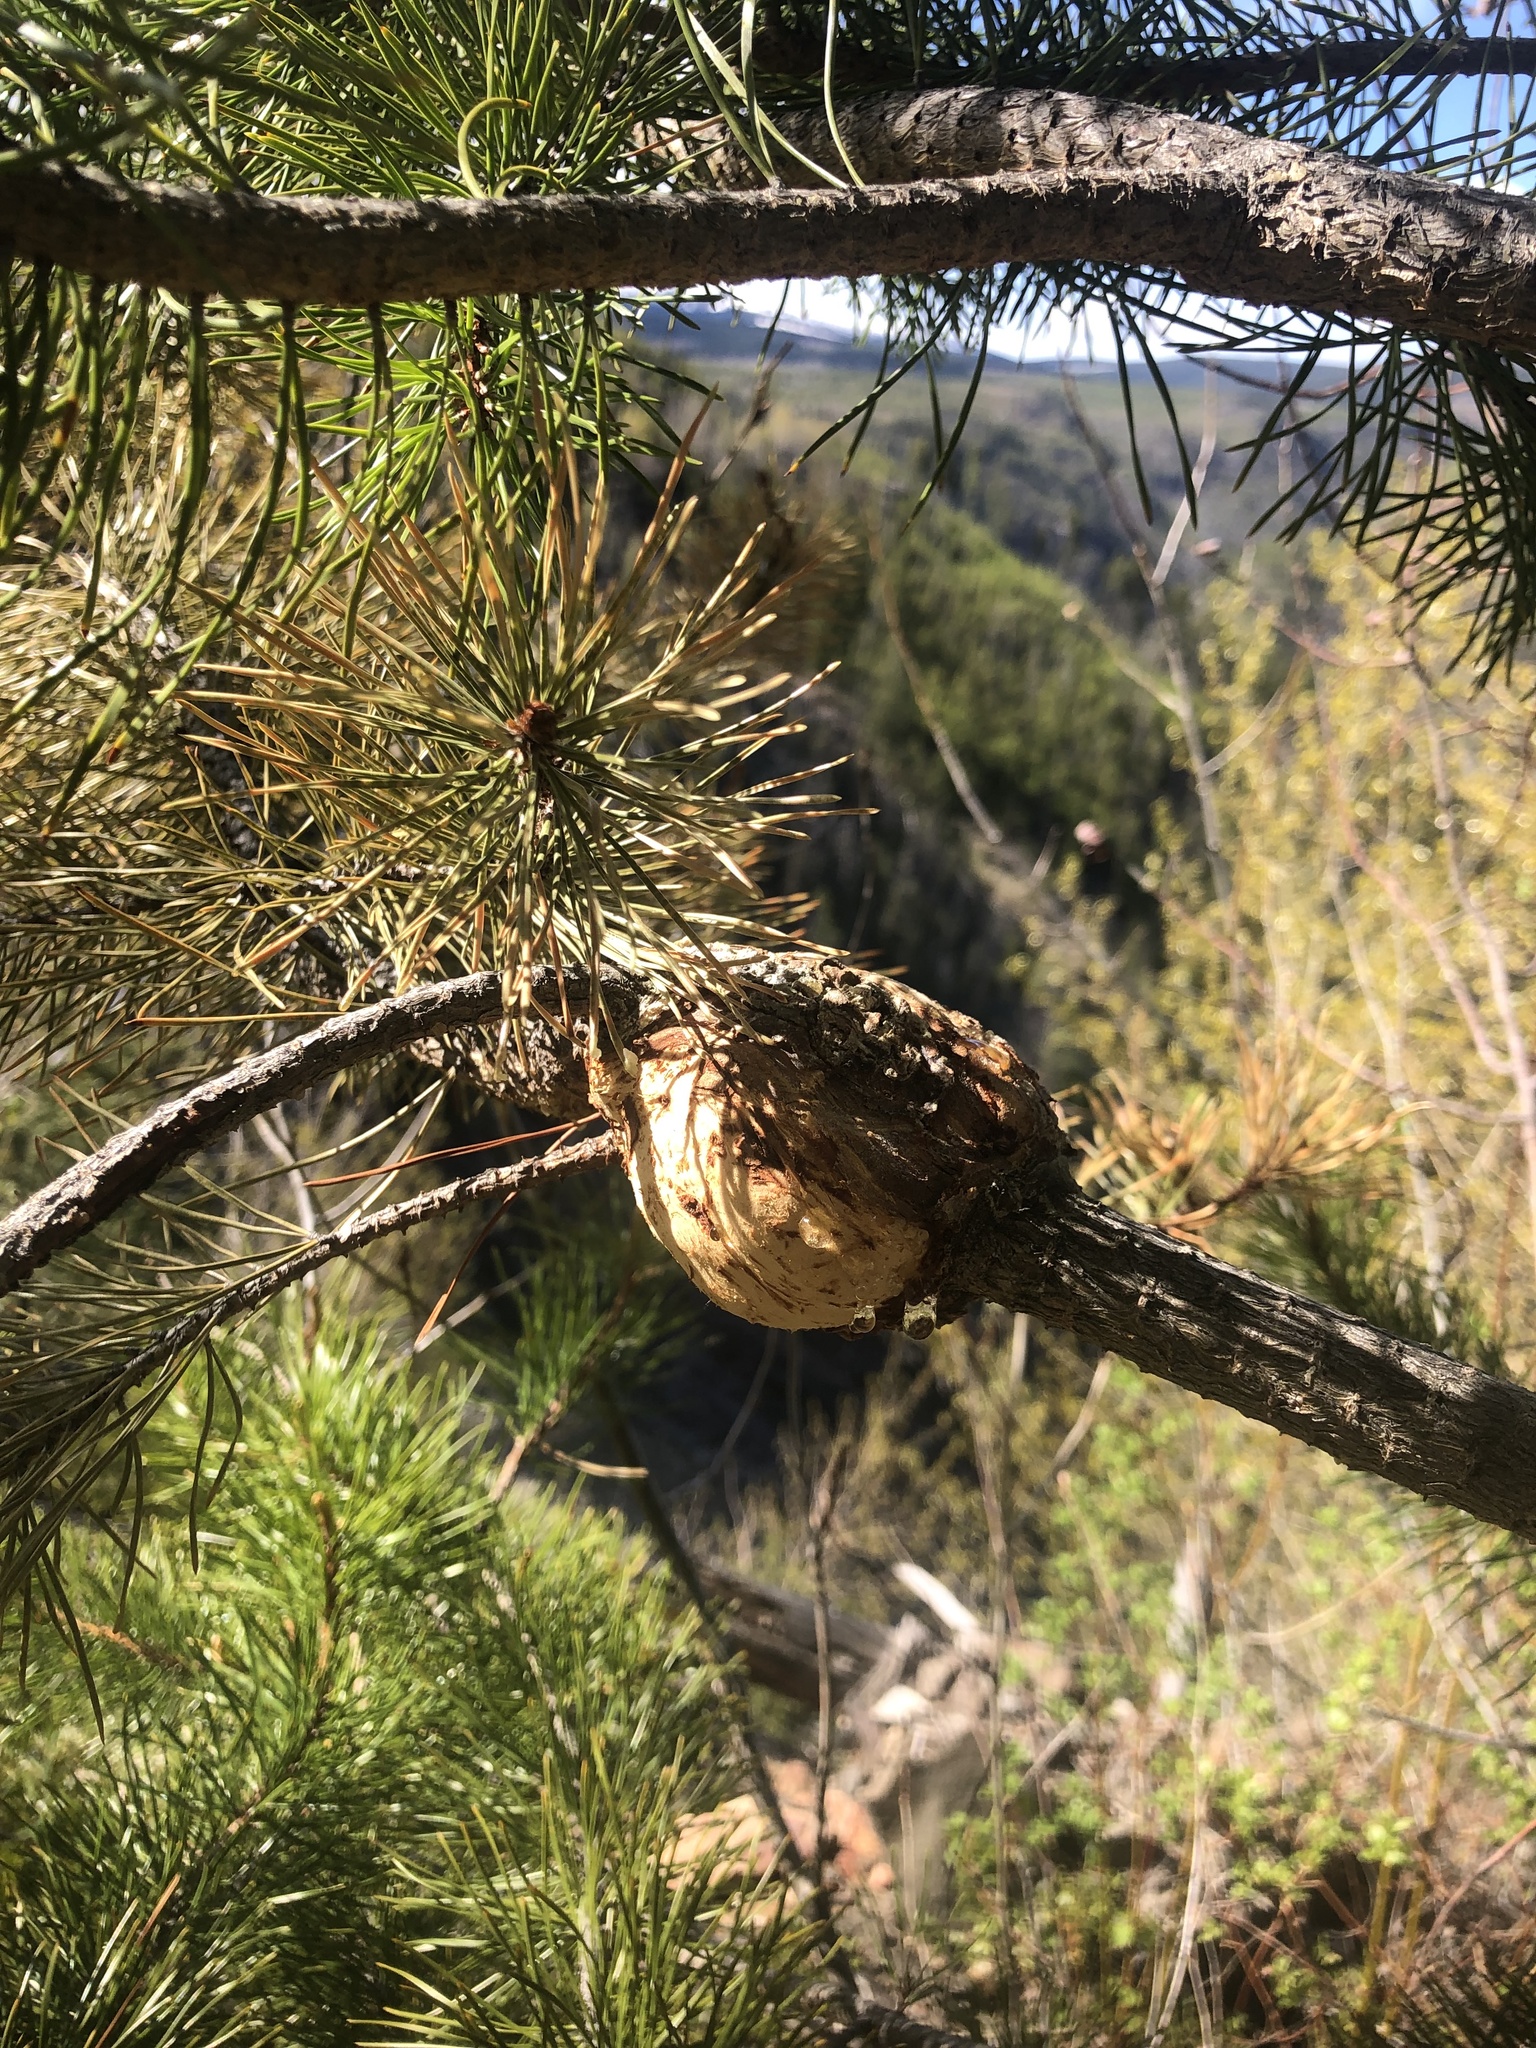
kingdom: Fungi
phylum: Basidiomycota
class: Pucciniomycetes
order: Pucciniales
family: Cronartiaceae
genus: Cronartium
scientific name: Cronartium harknessii
